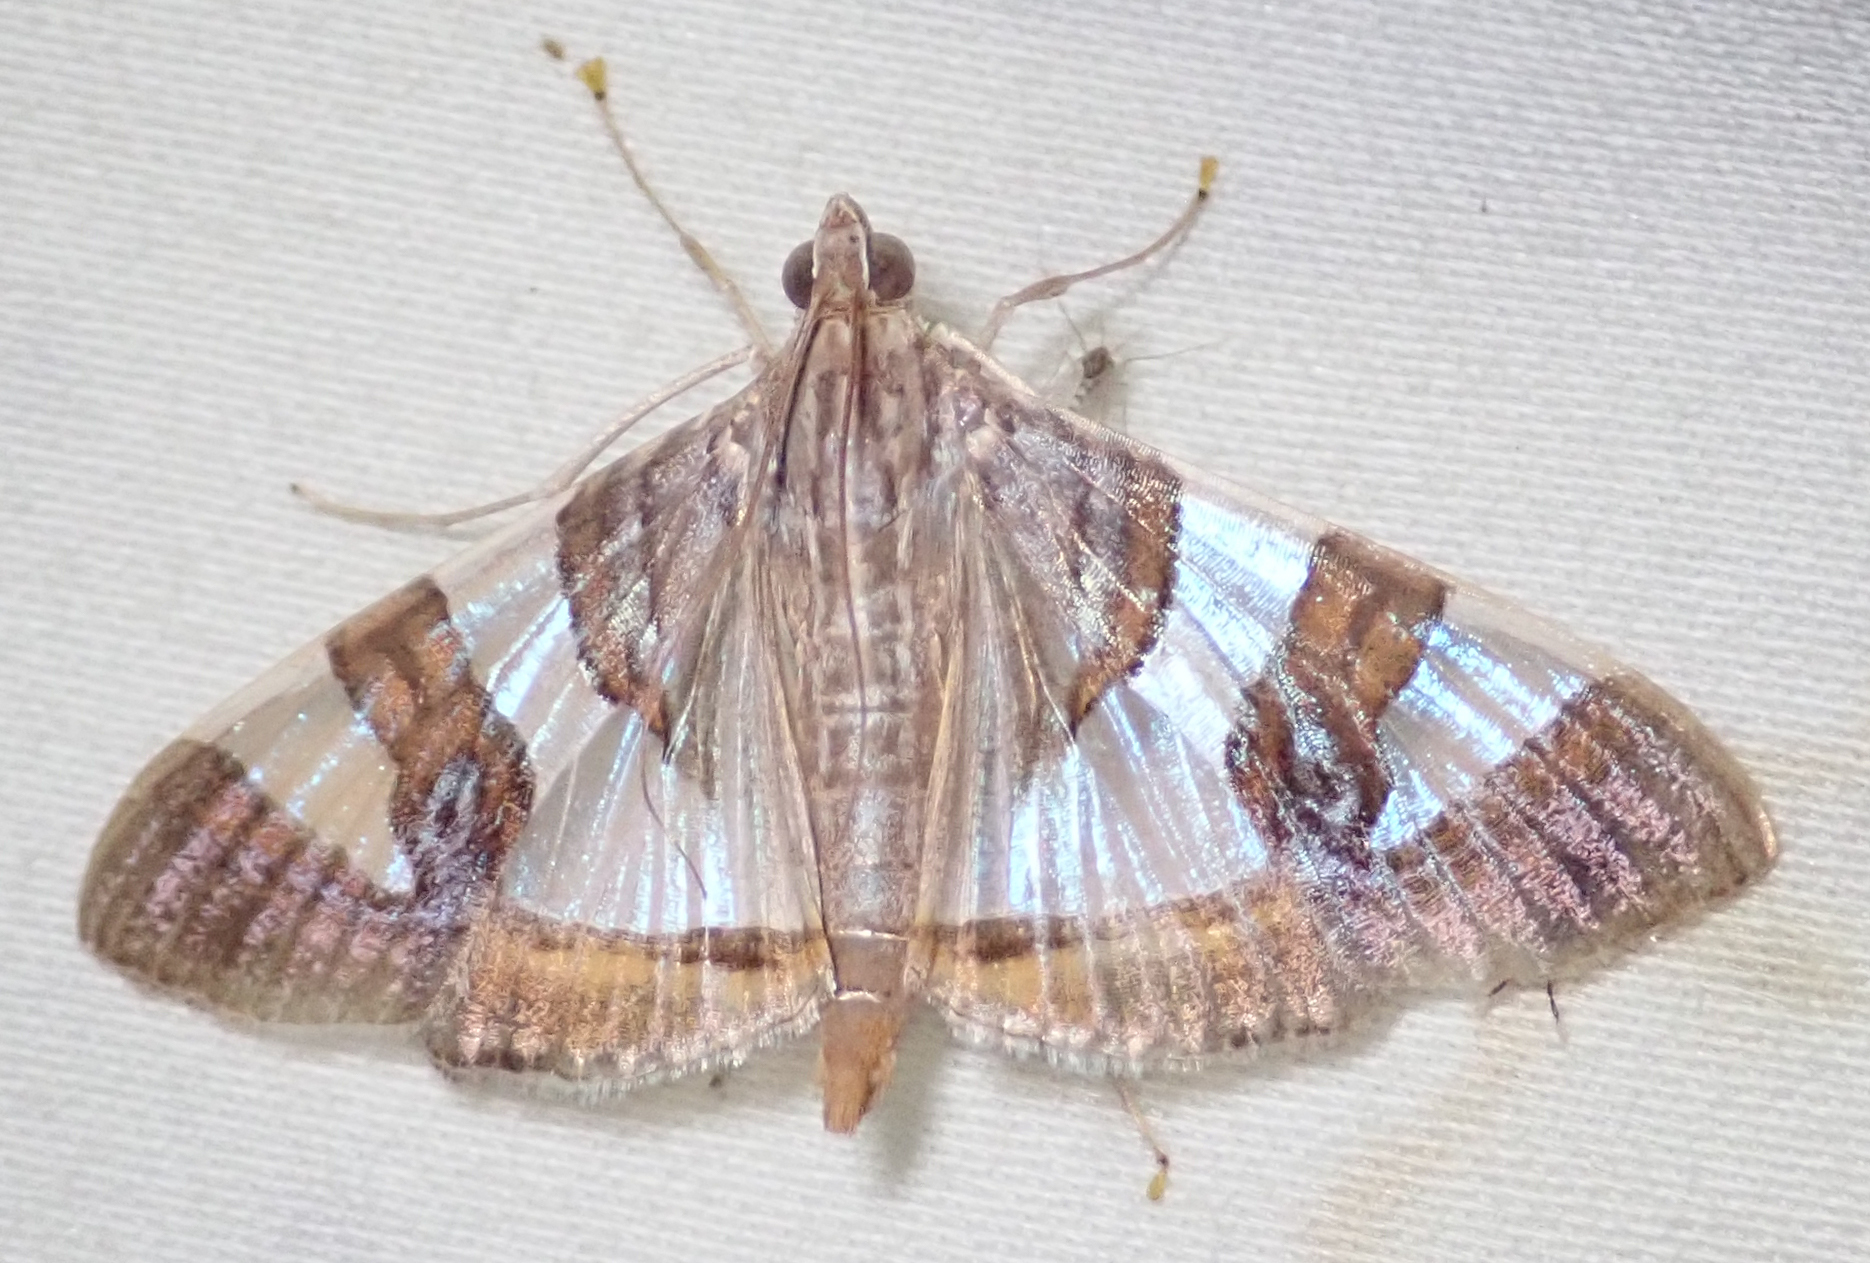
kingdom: Animalia
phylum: Arthropoda
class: Insecta
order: Lepidoptera
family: Crambidae
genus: Glyphodes
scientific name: Glyphodes bitriangulalis
